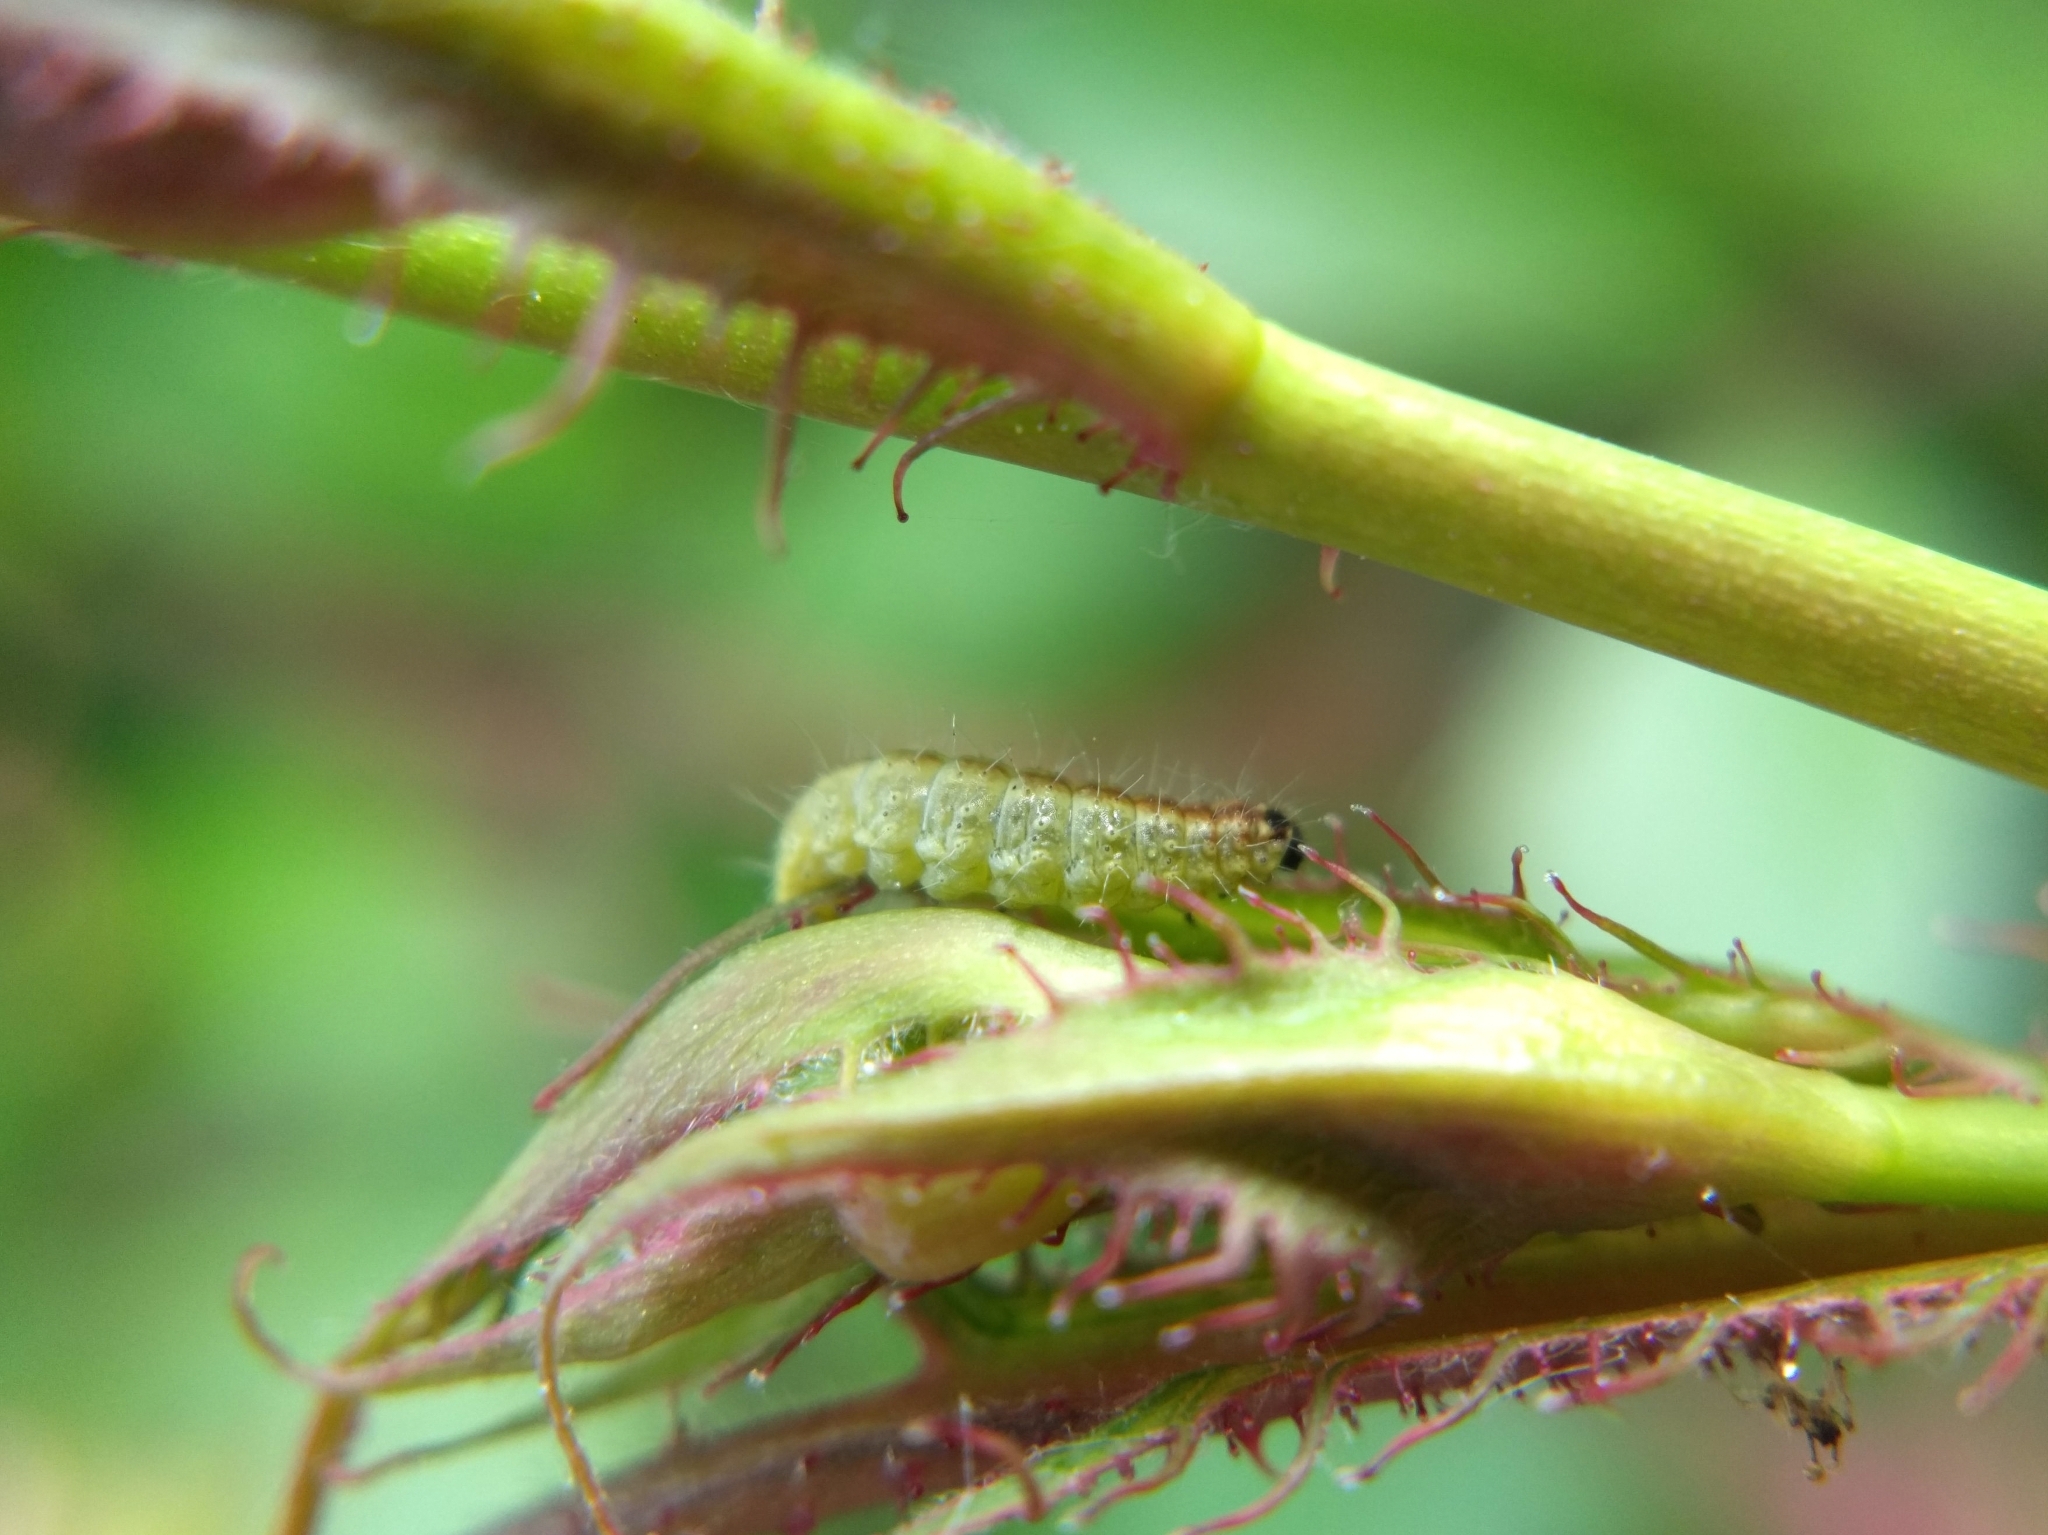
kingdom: Animalia
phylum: Arthropoda
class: Insecta
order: Lepidoptera
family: Pterophoridae
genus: Cnaemidophorus
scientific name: Cnaemidophorus rhododactyla
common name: Rose plume
